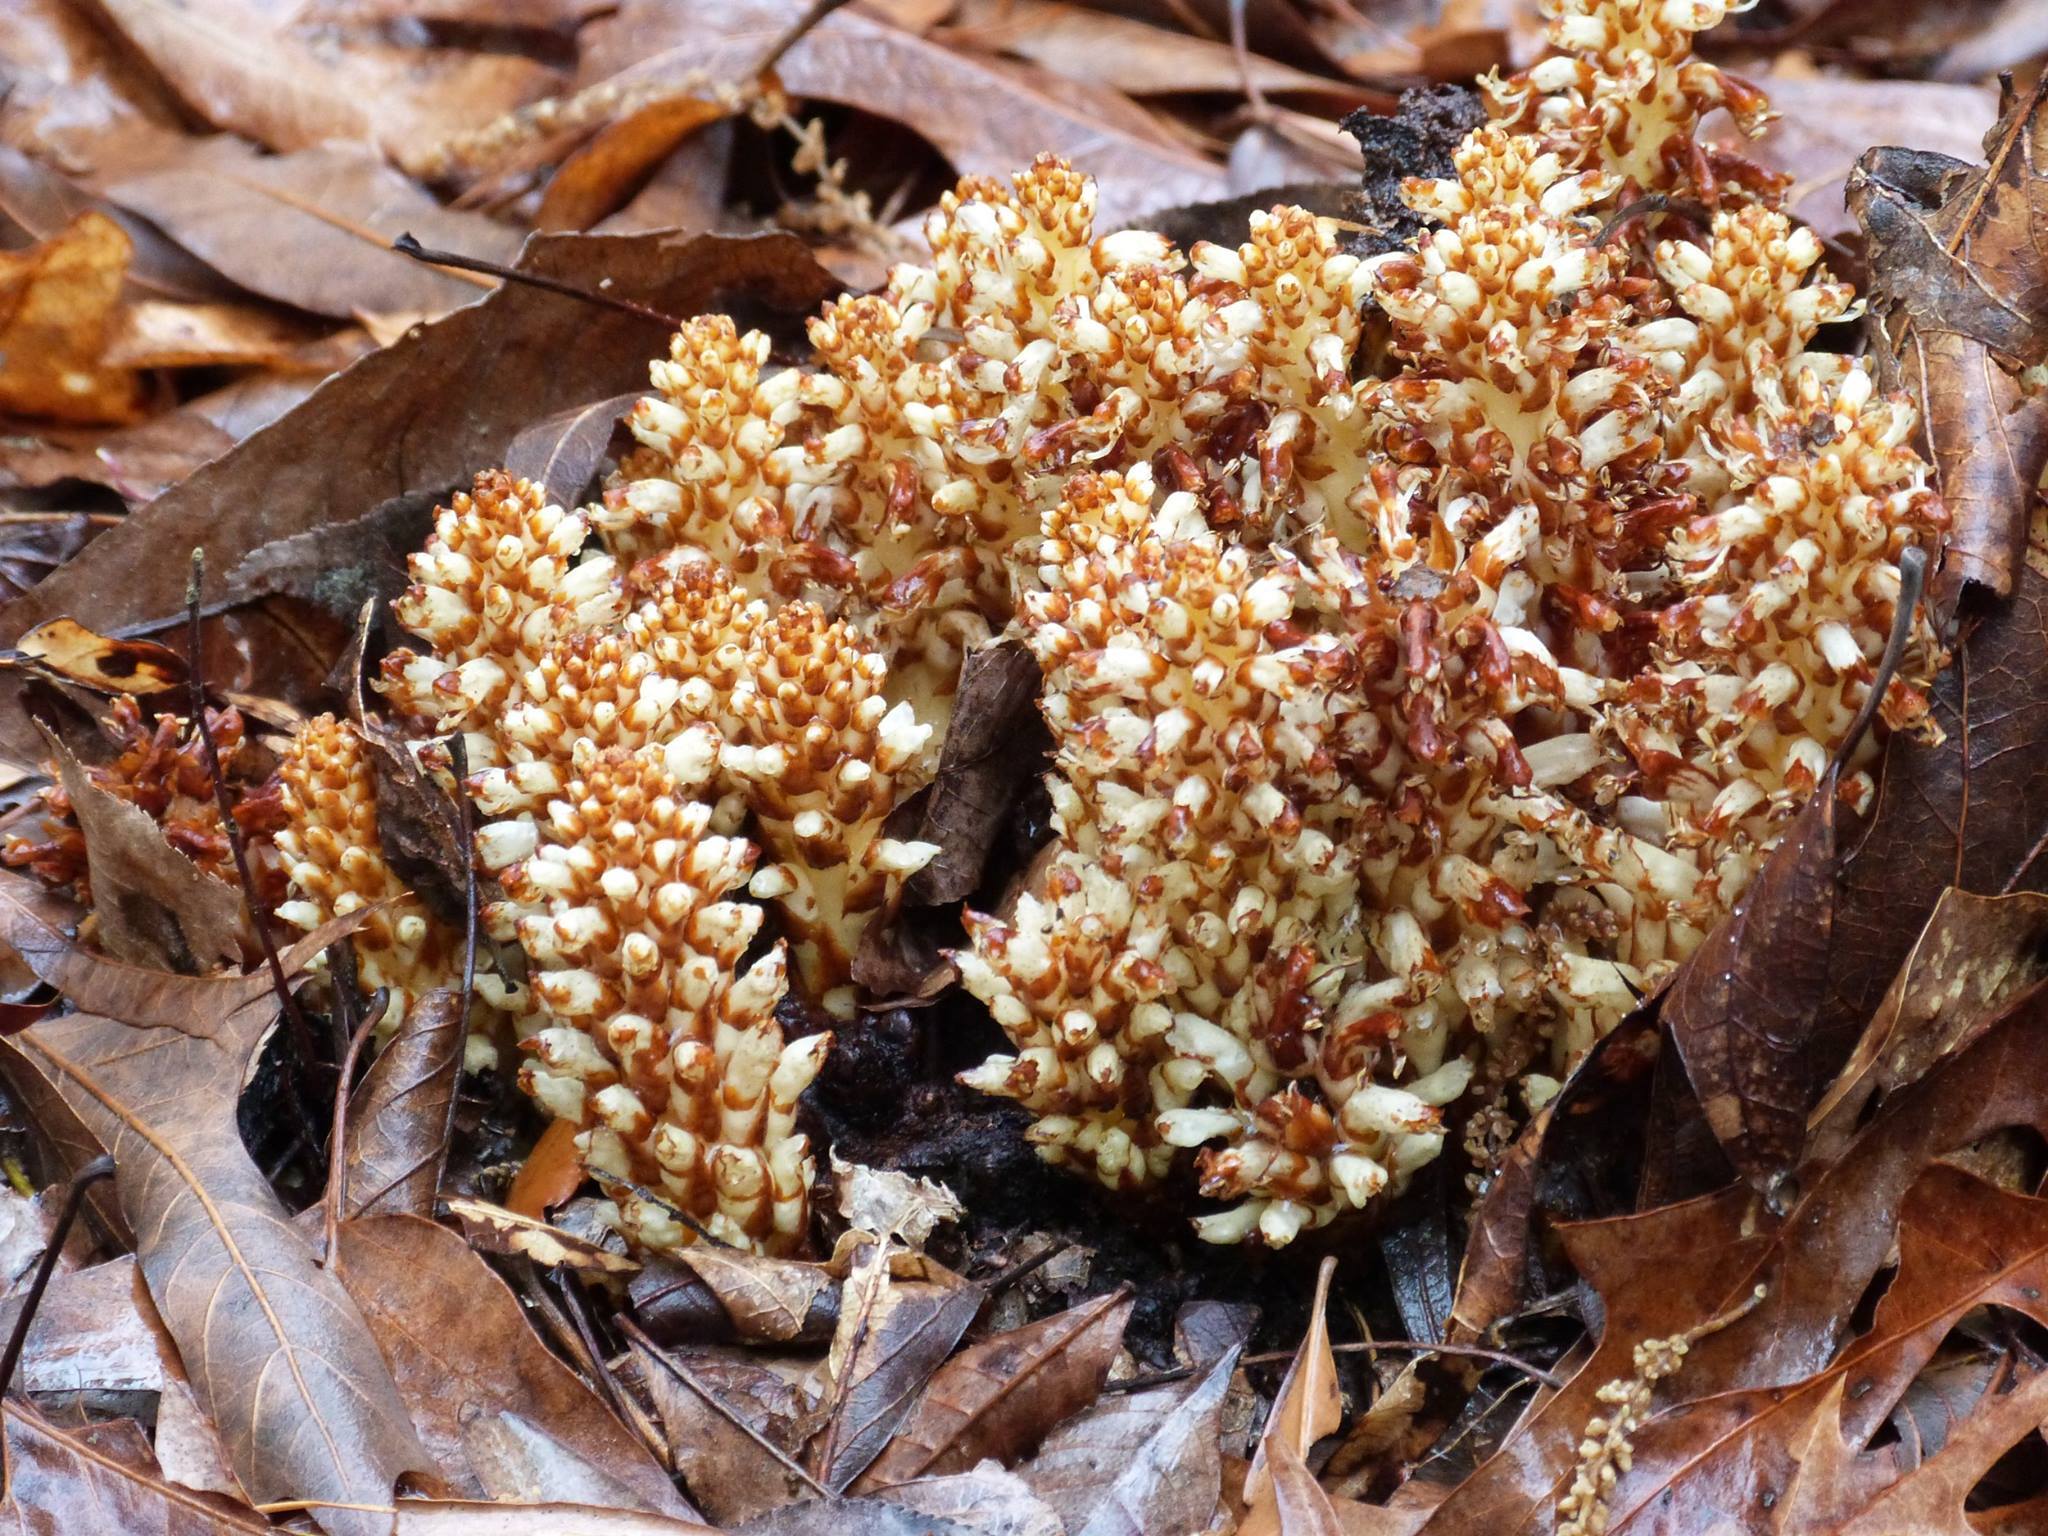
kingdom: Plantae
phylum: Tracheophyta
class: Magnoliopsida
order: Lamiales
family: Orobanchaceae
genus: Conopholis
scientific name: Conopholis americana
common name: American cancer-root
